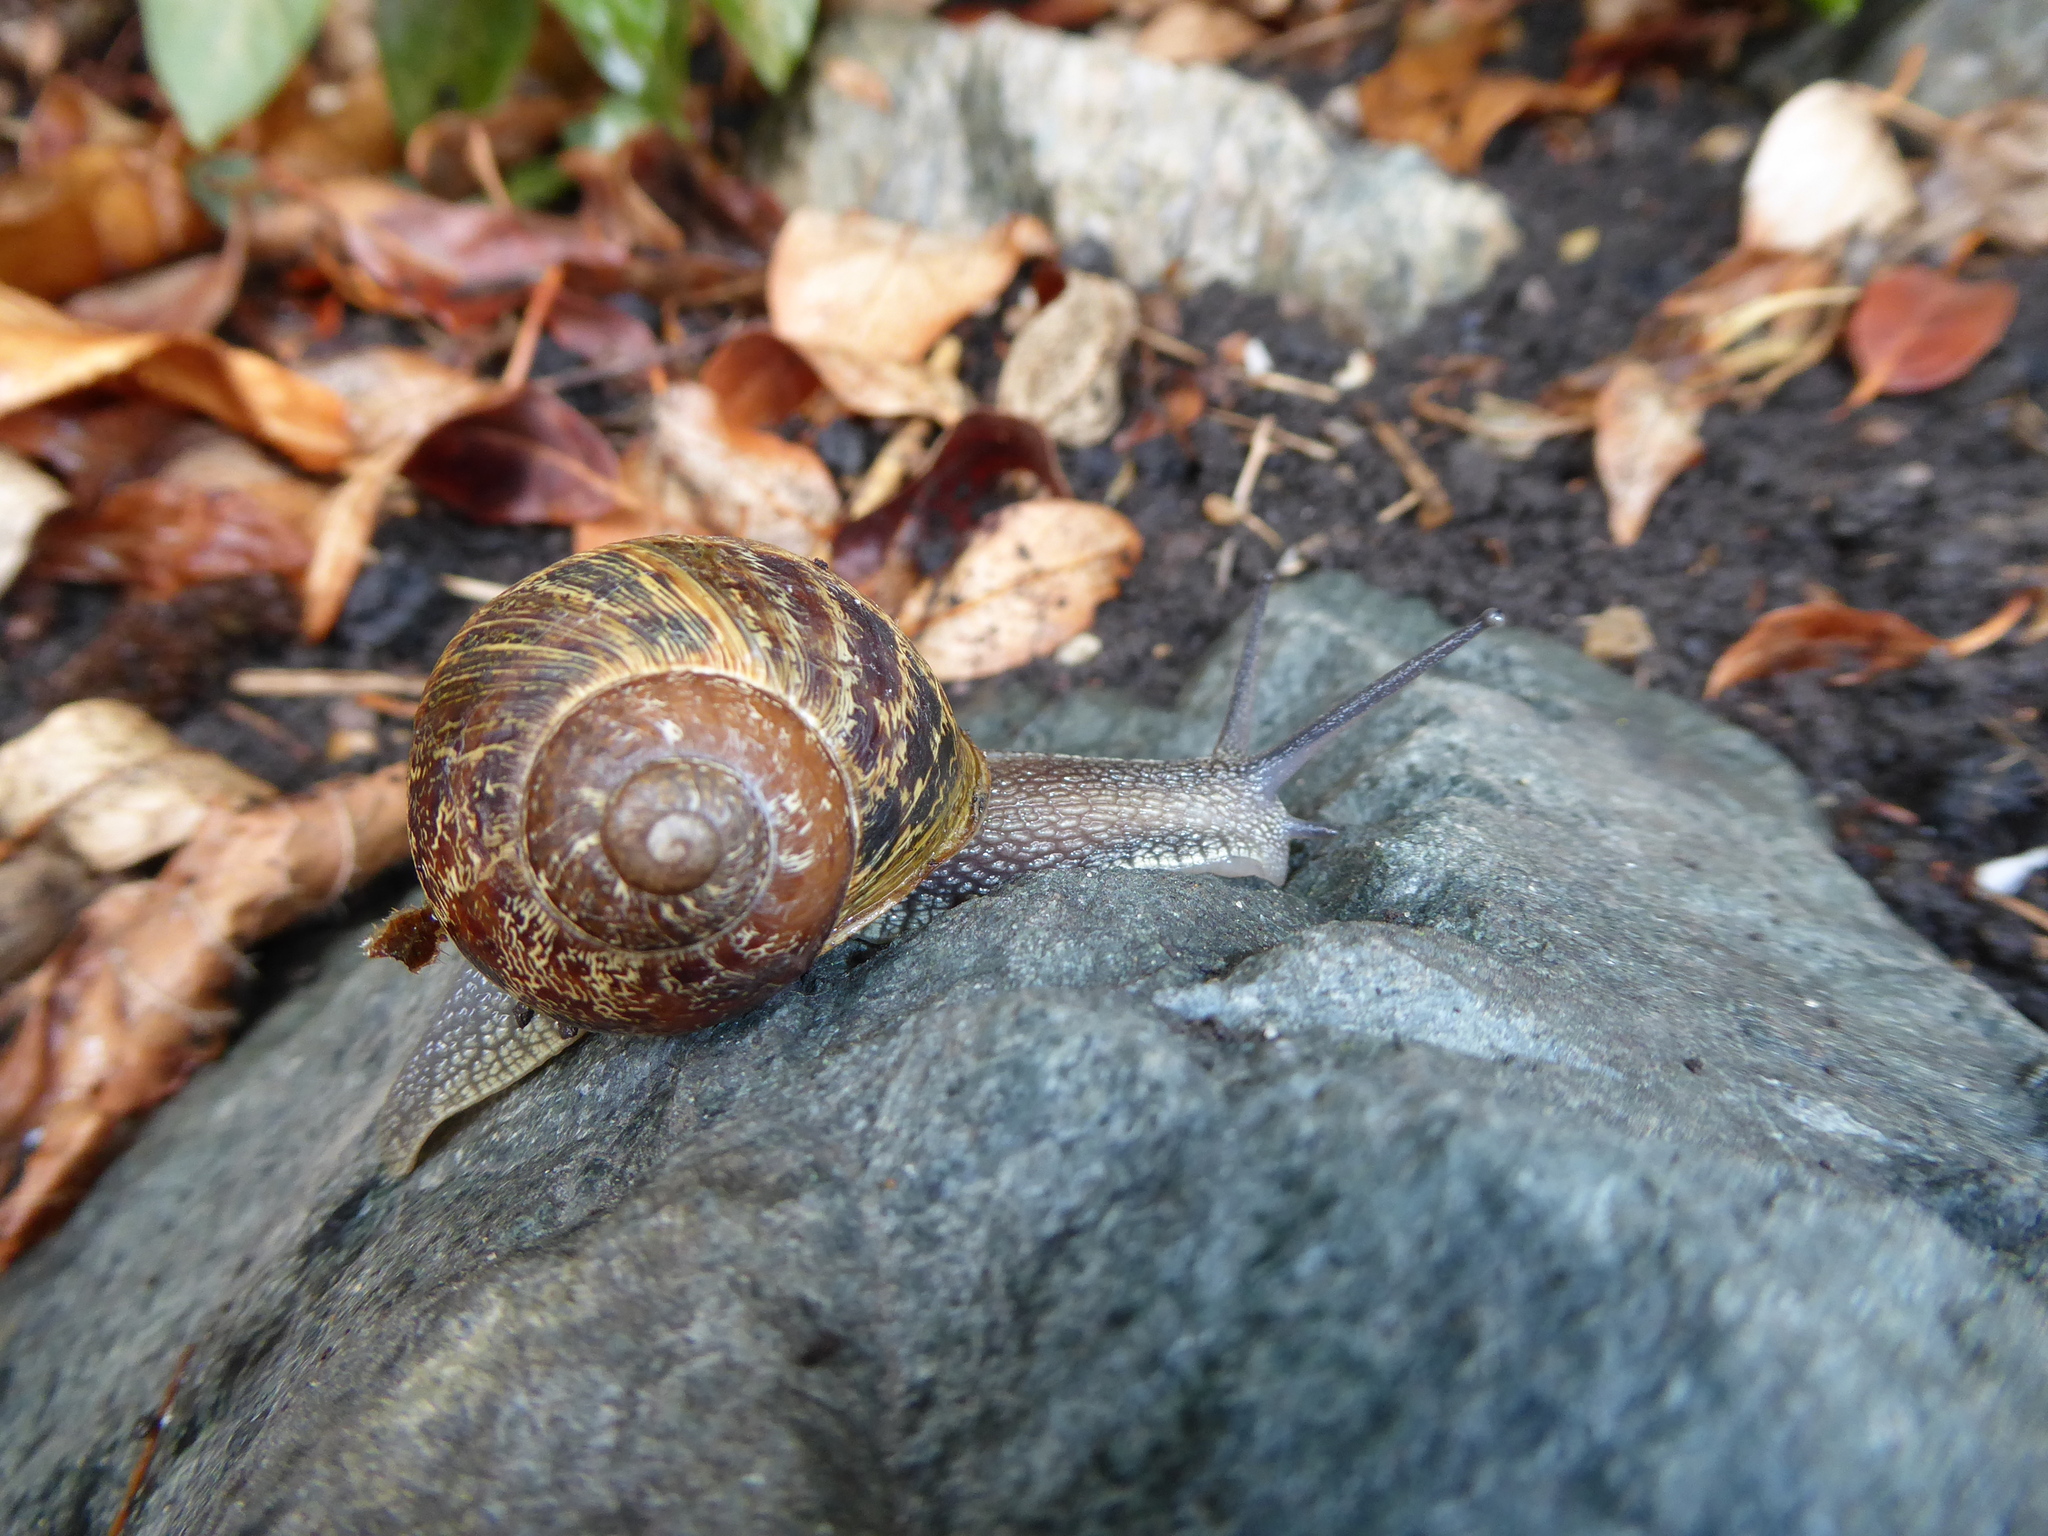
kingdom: Animalia
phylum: Mollusca
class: Gastropoda
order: Stylommatophora
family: Helicidae
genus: Cornu
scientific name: Cornu aspersum
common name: Brown garden snail
